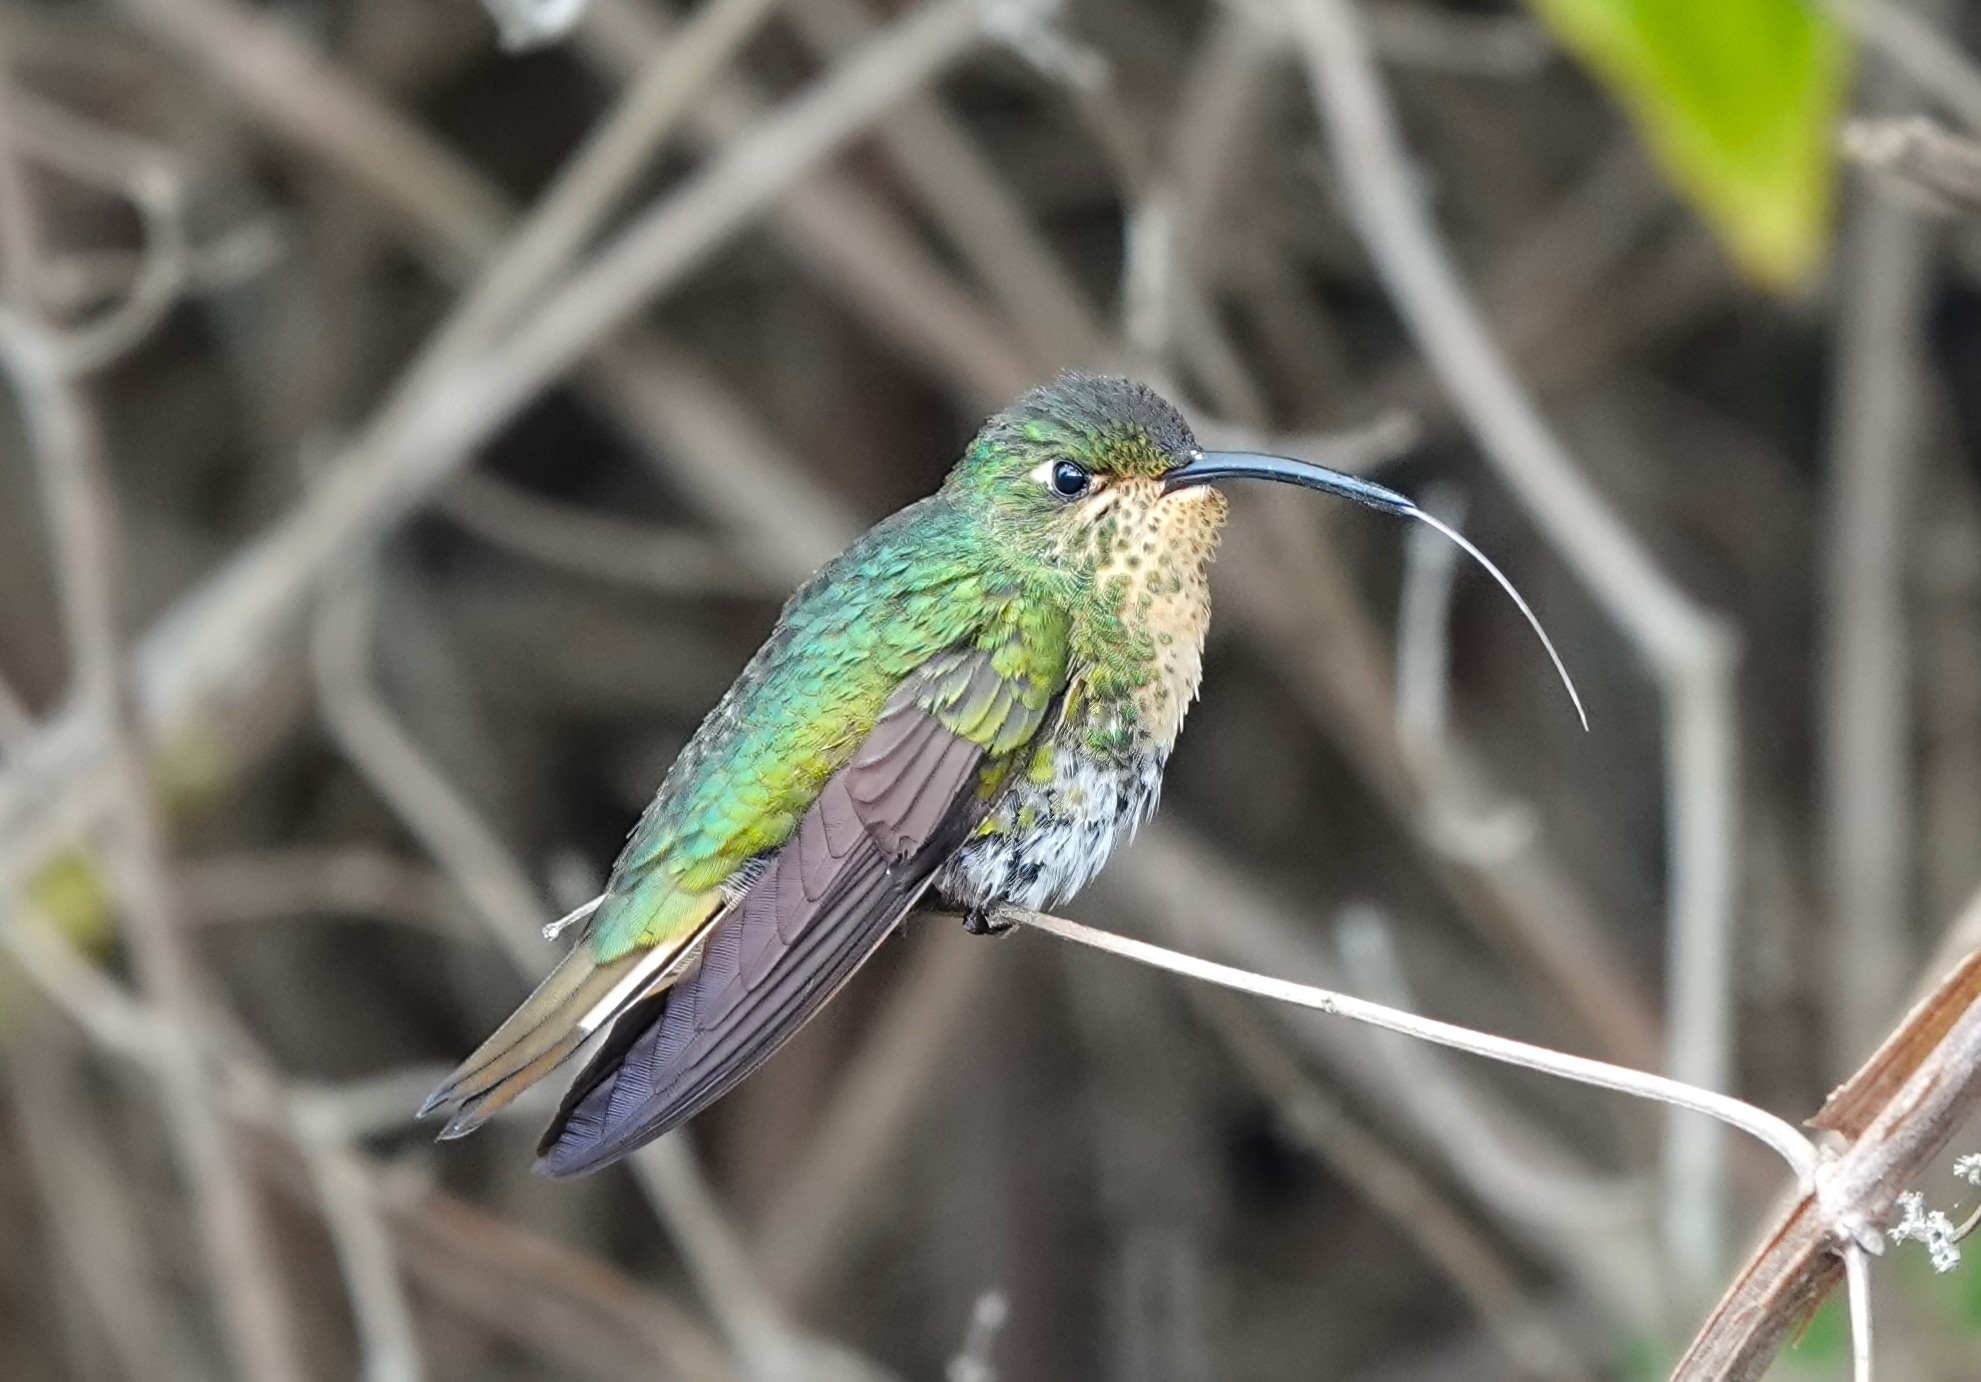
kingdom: Animalia
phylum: Chordata
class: Aves
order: Apodiformes
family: Trochilidae
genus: Lafresnaya
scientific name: Lafresnaya lafresnayi
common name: Mountain velvetbreast
